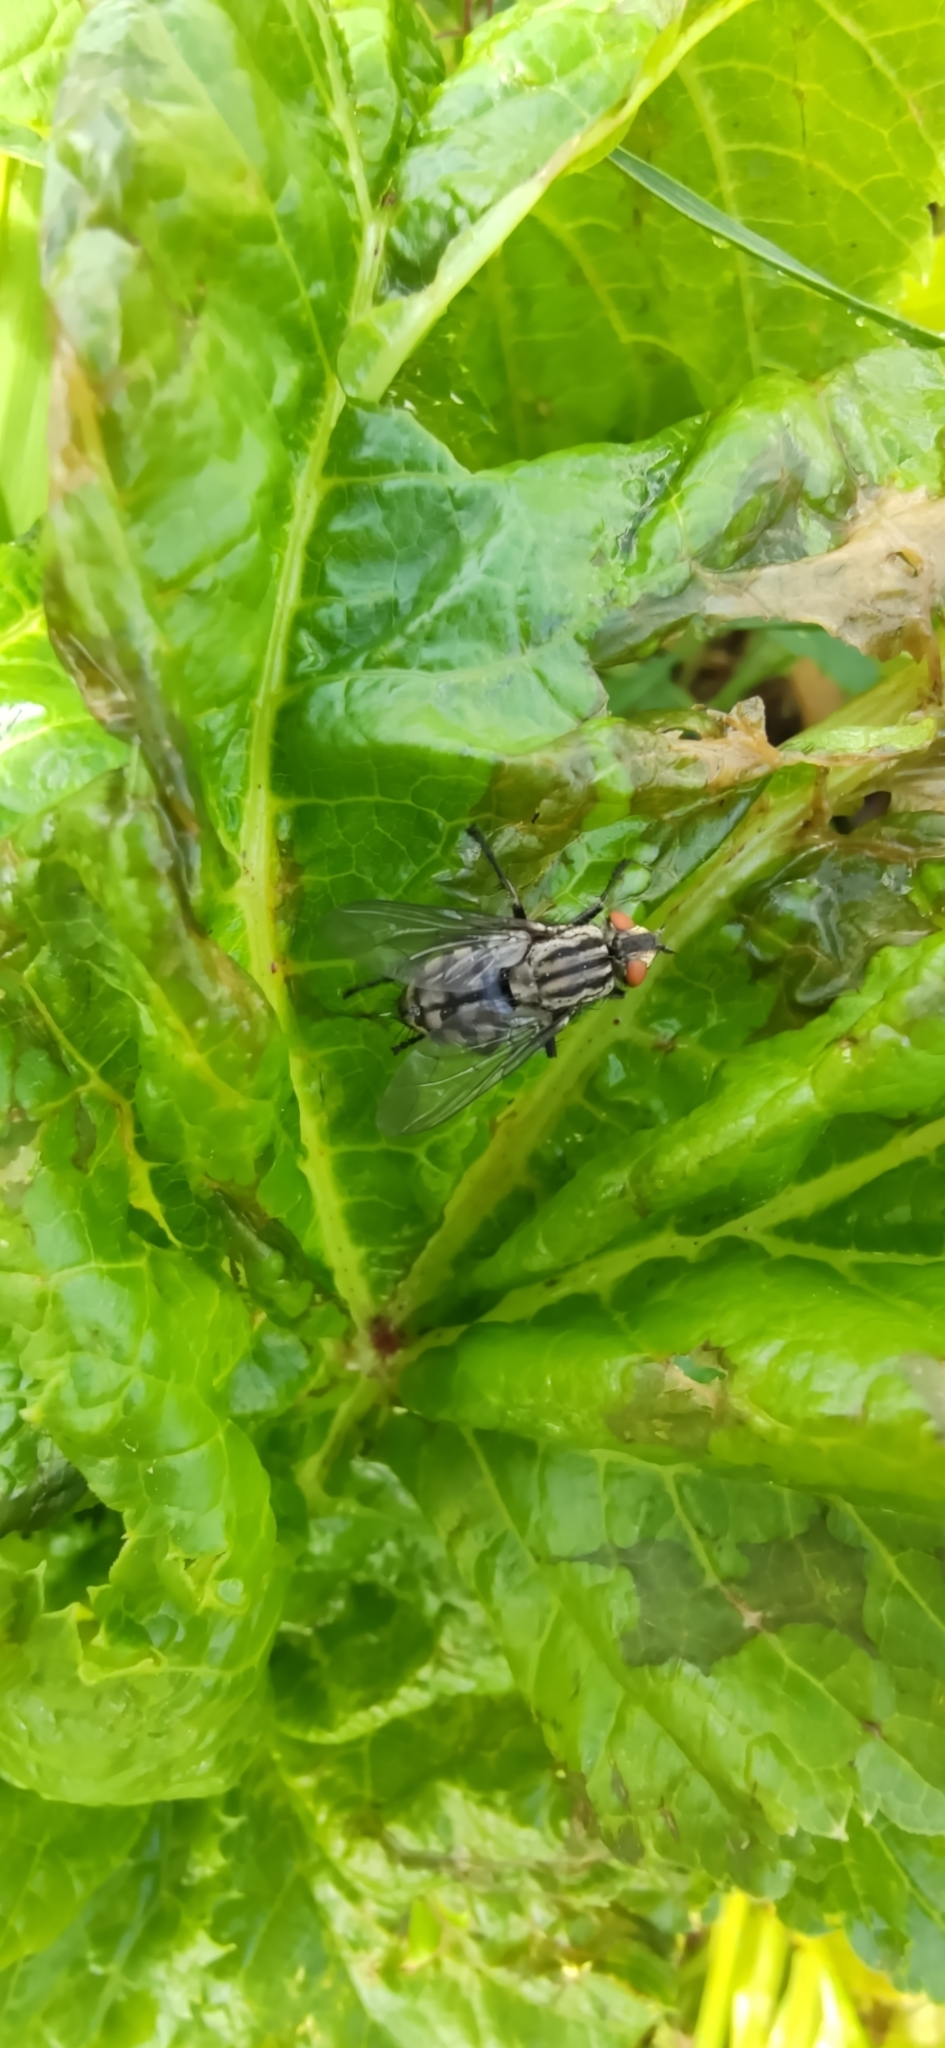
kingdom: Animalia
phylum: Arthropoda
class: Insecta
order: Diptera
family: Sarcophagidae
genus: Sarcophaga
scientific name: Sarcophaga
